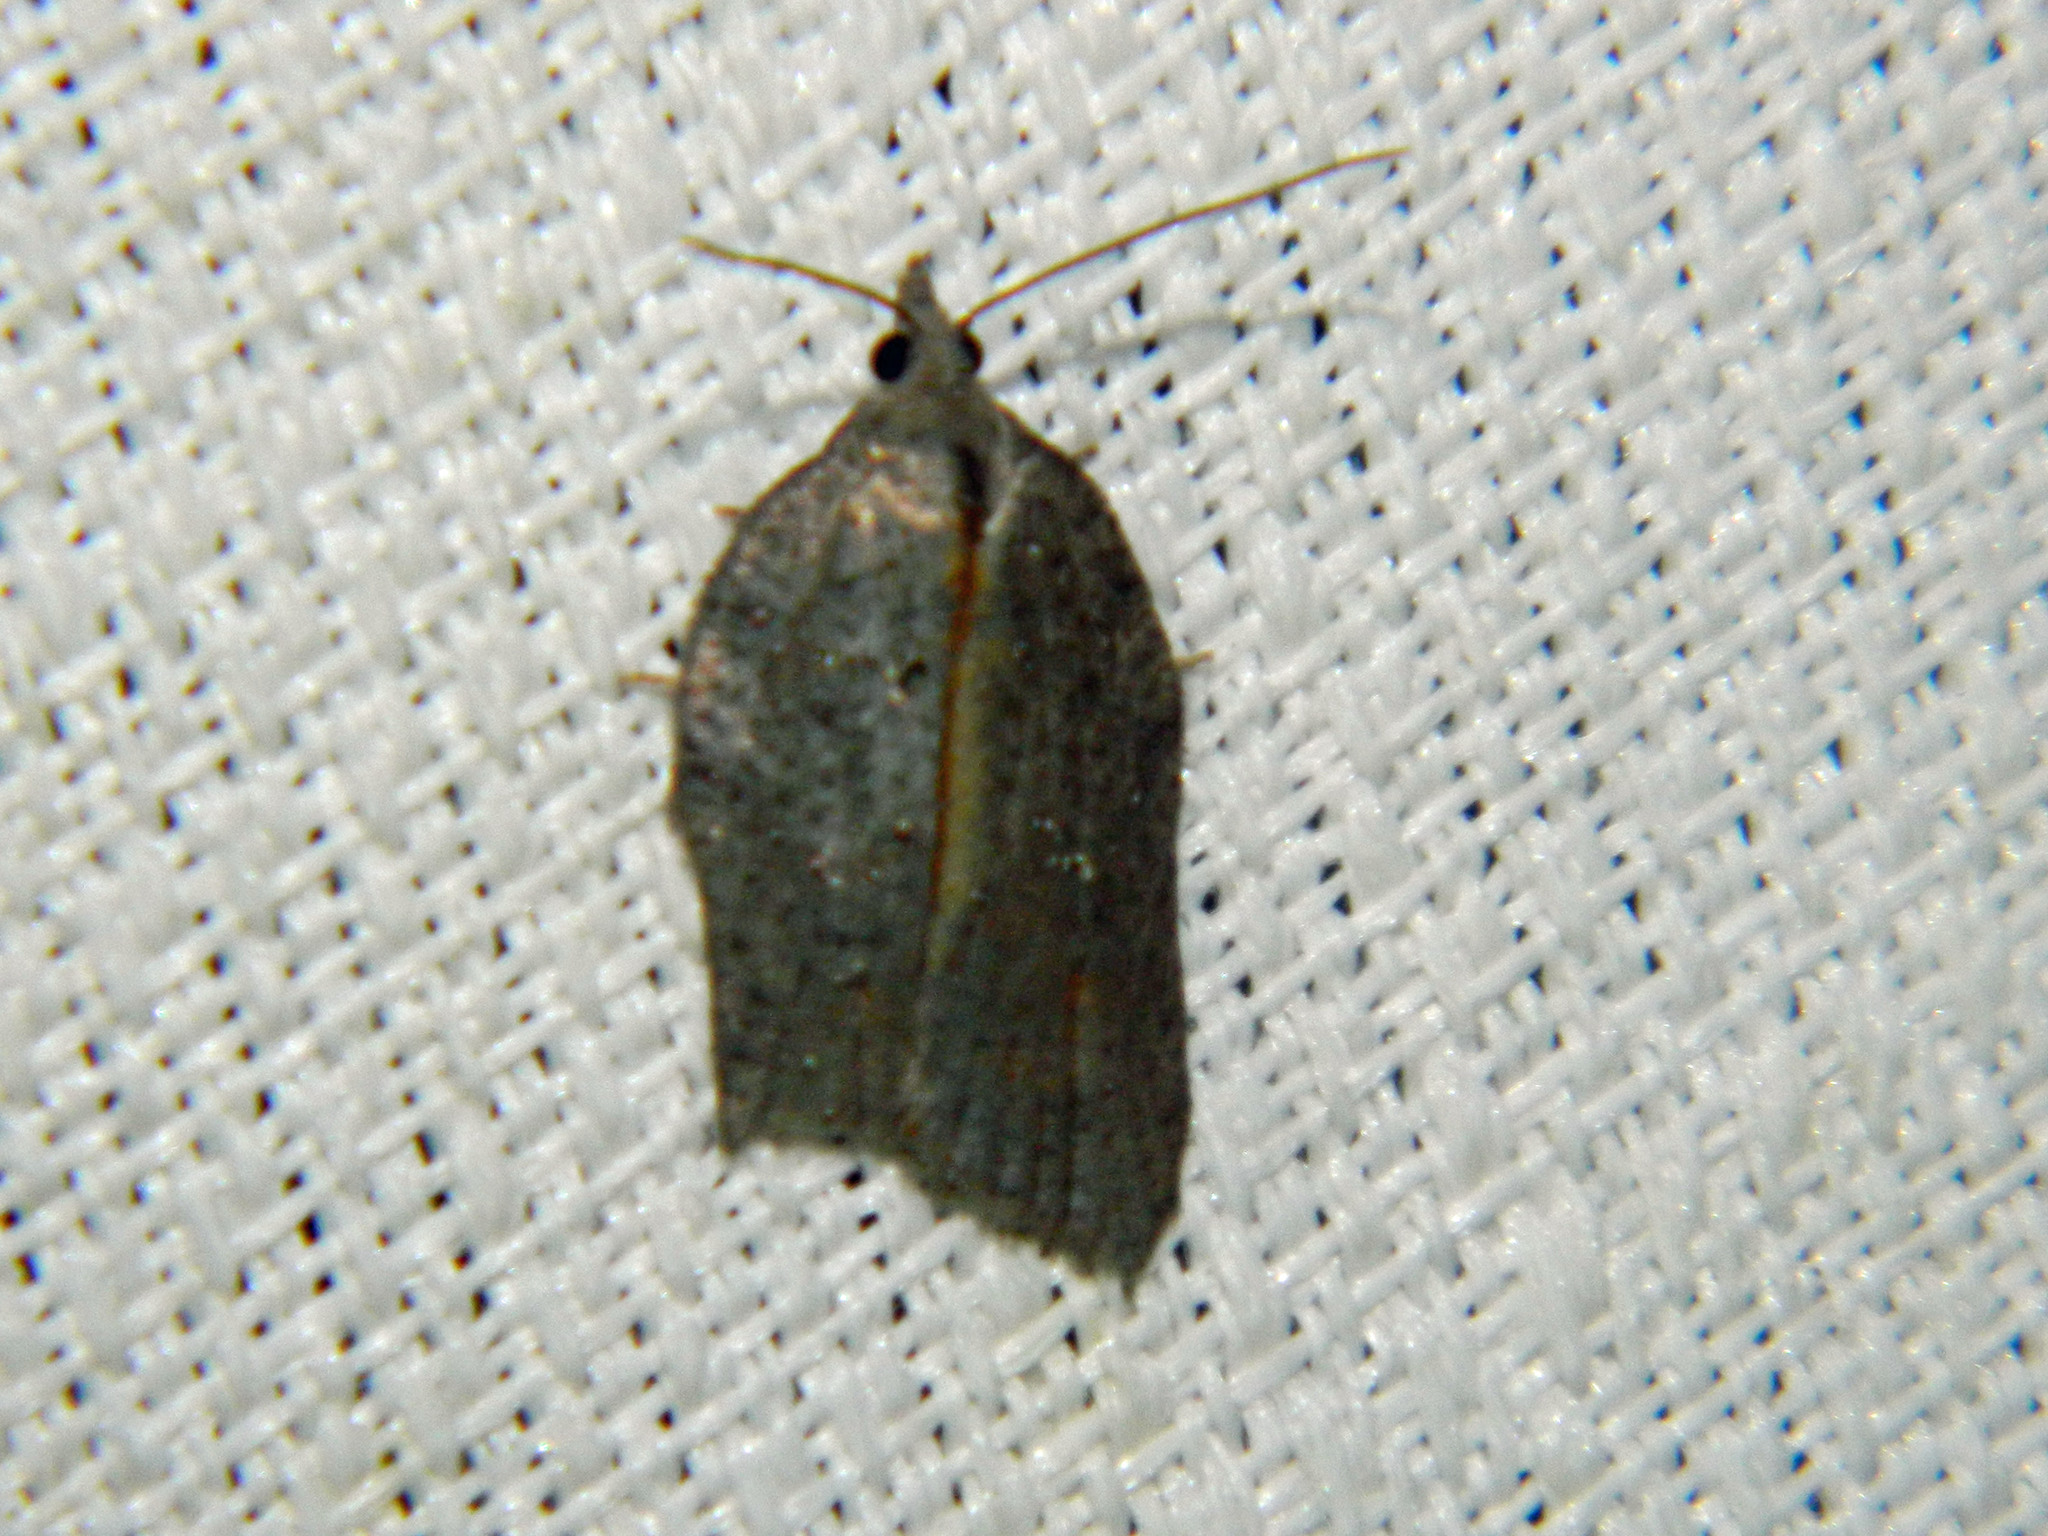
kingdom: Animalia
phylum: Arthropoda
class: Insecta
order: Lepidoptera
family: Tortricidae
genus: Acleris
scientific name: Acleris effractana
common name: Hook-winged tortrix moth
